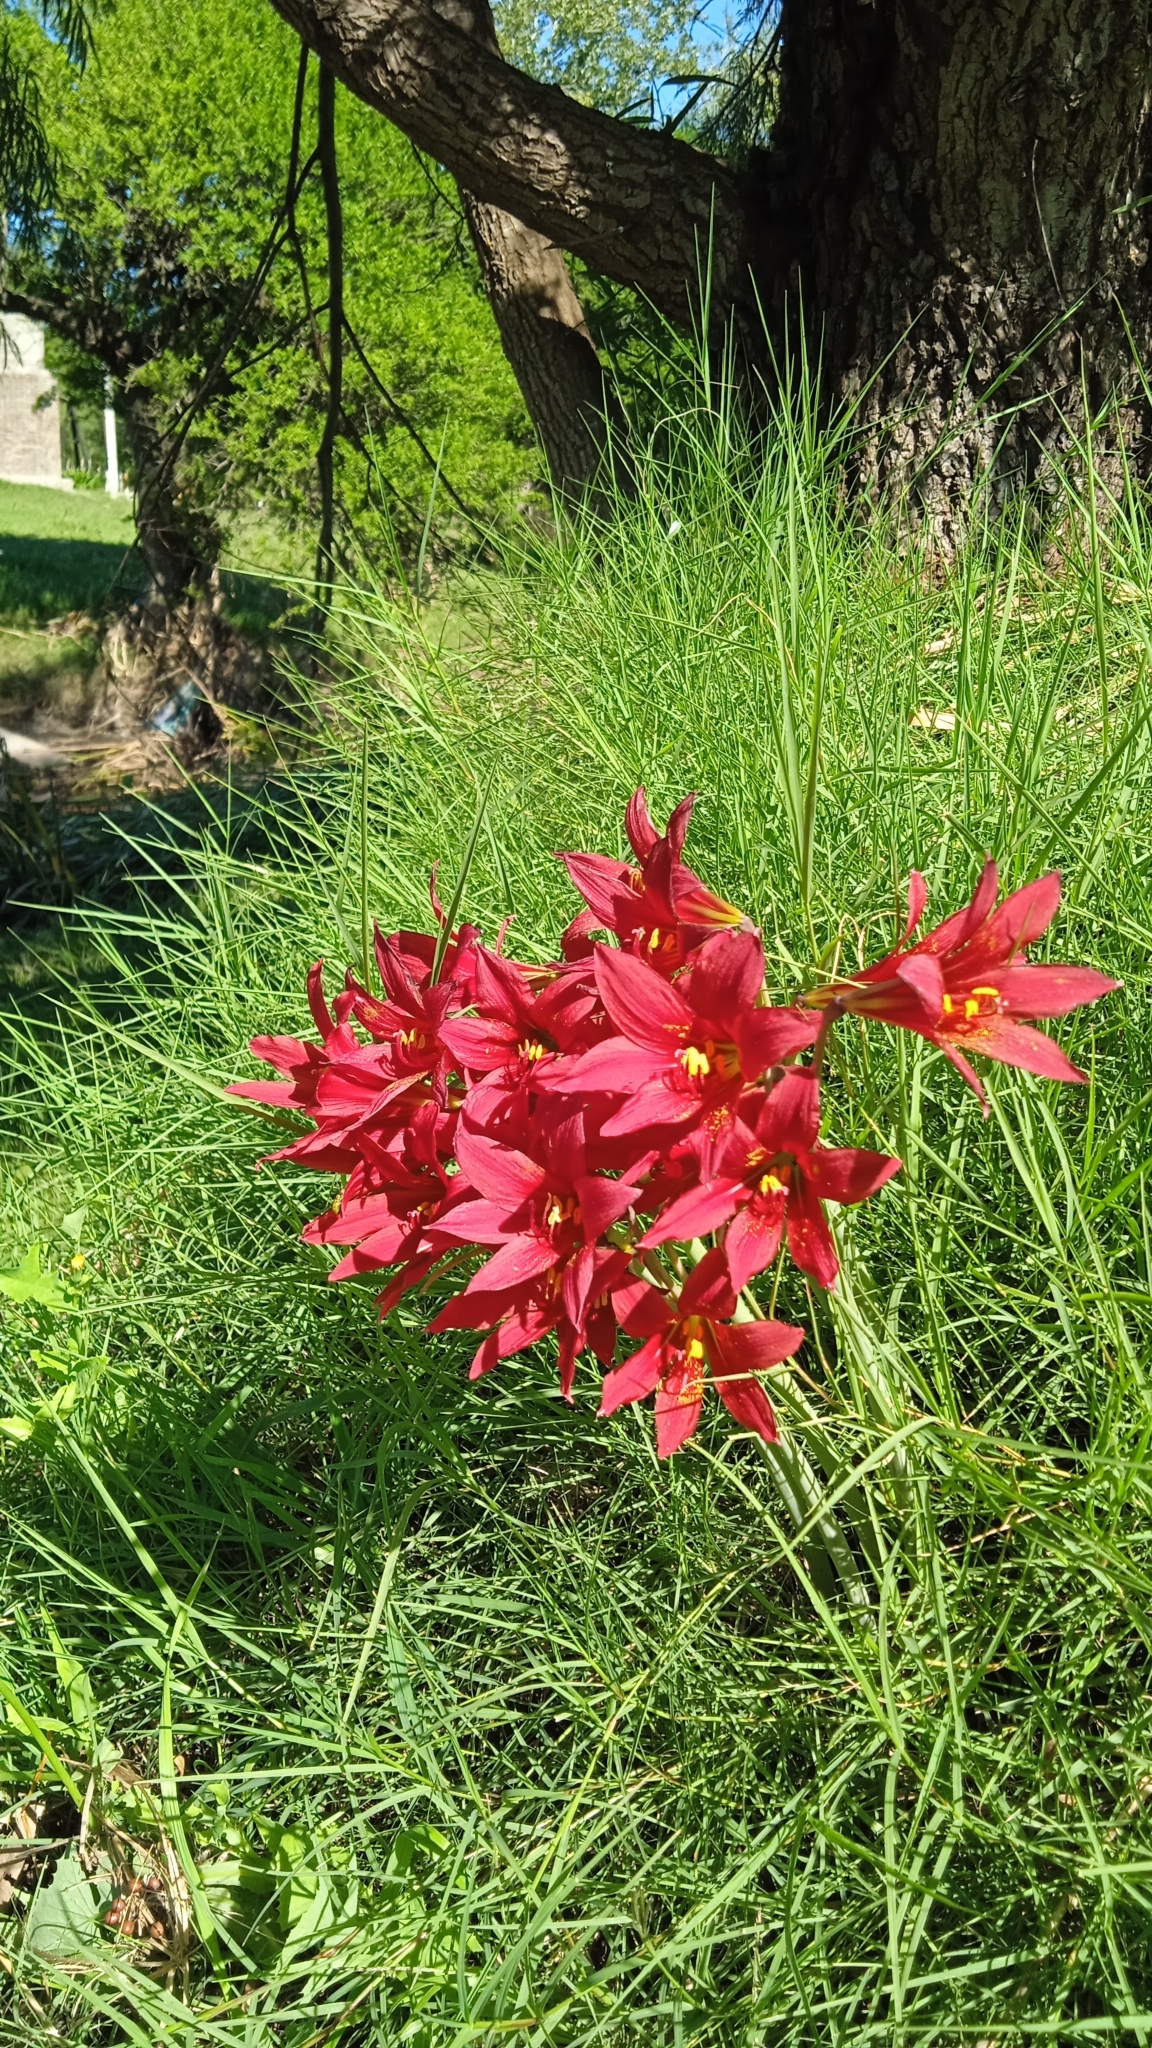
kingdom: Plantae
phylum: Tracheophyta
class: Liliopsida
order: Asparagales
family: Amaryllidaceae
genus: Zephyranthes
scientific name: Zephyranthes bifida
